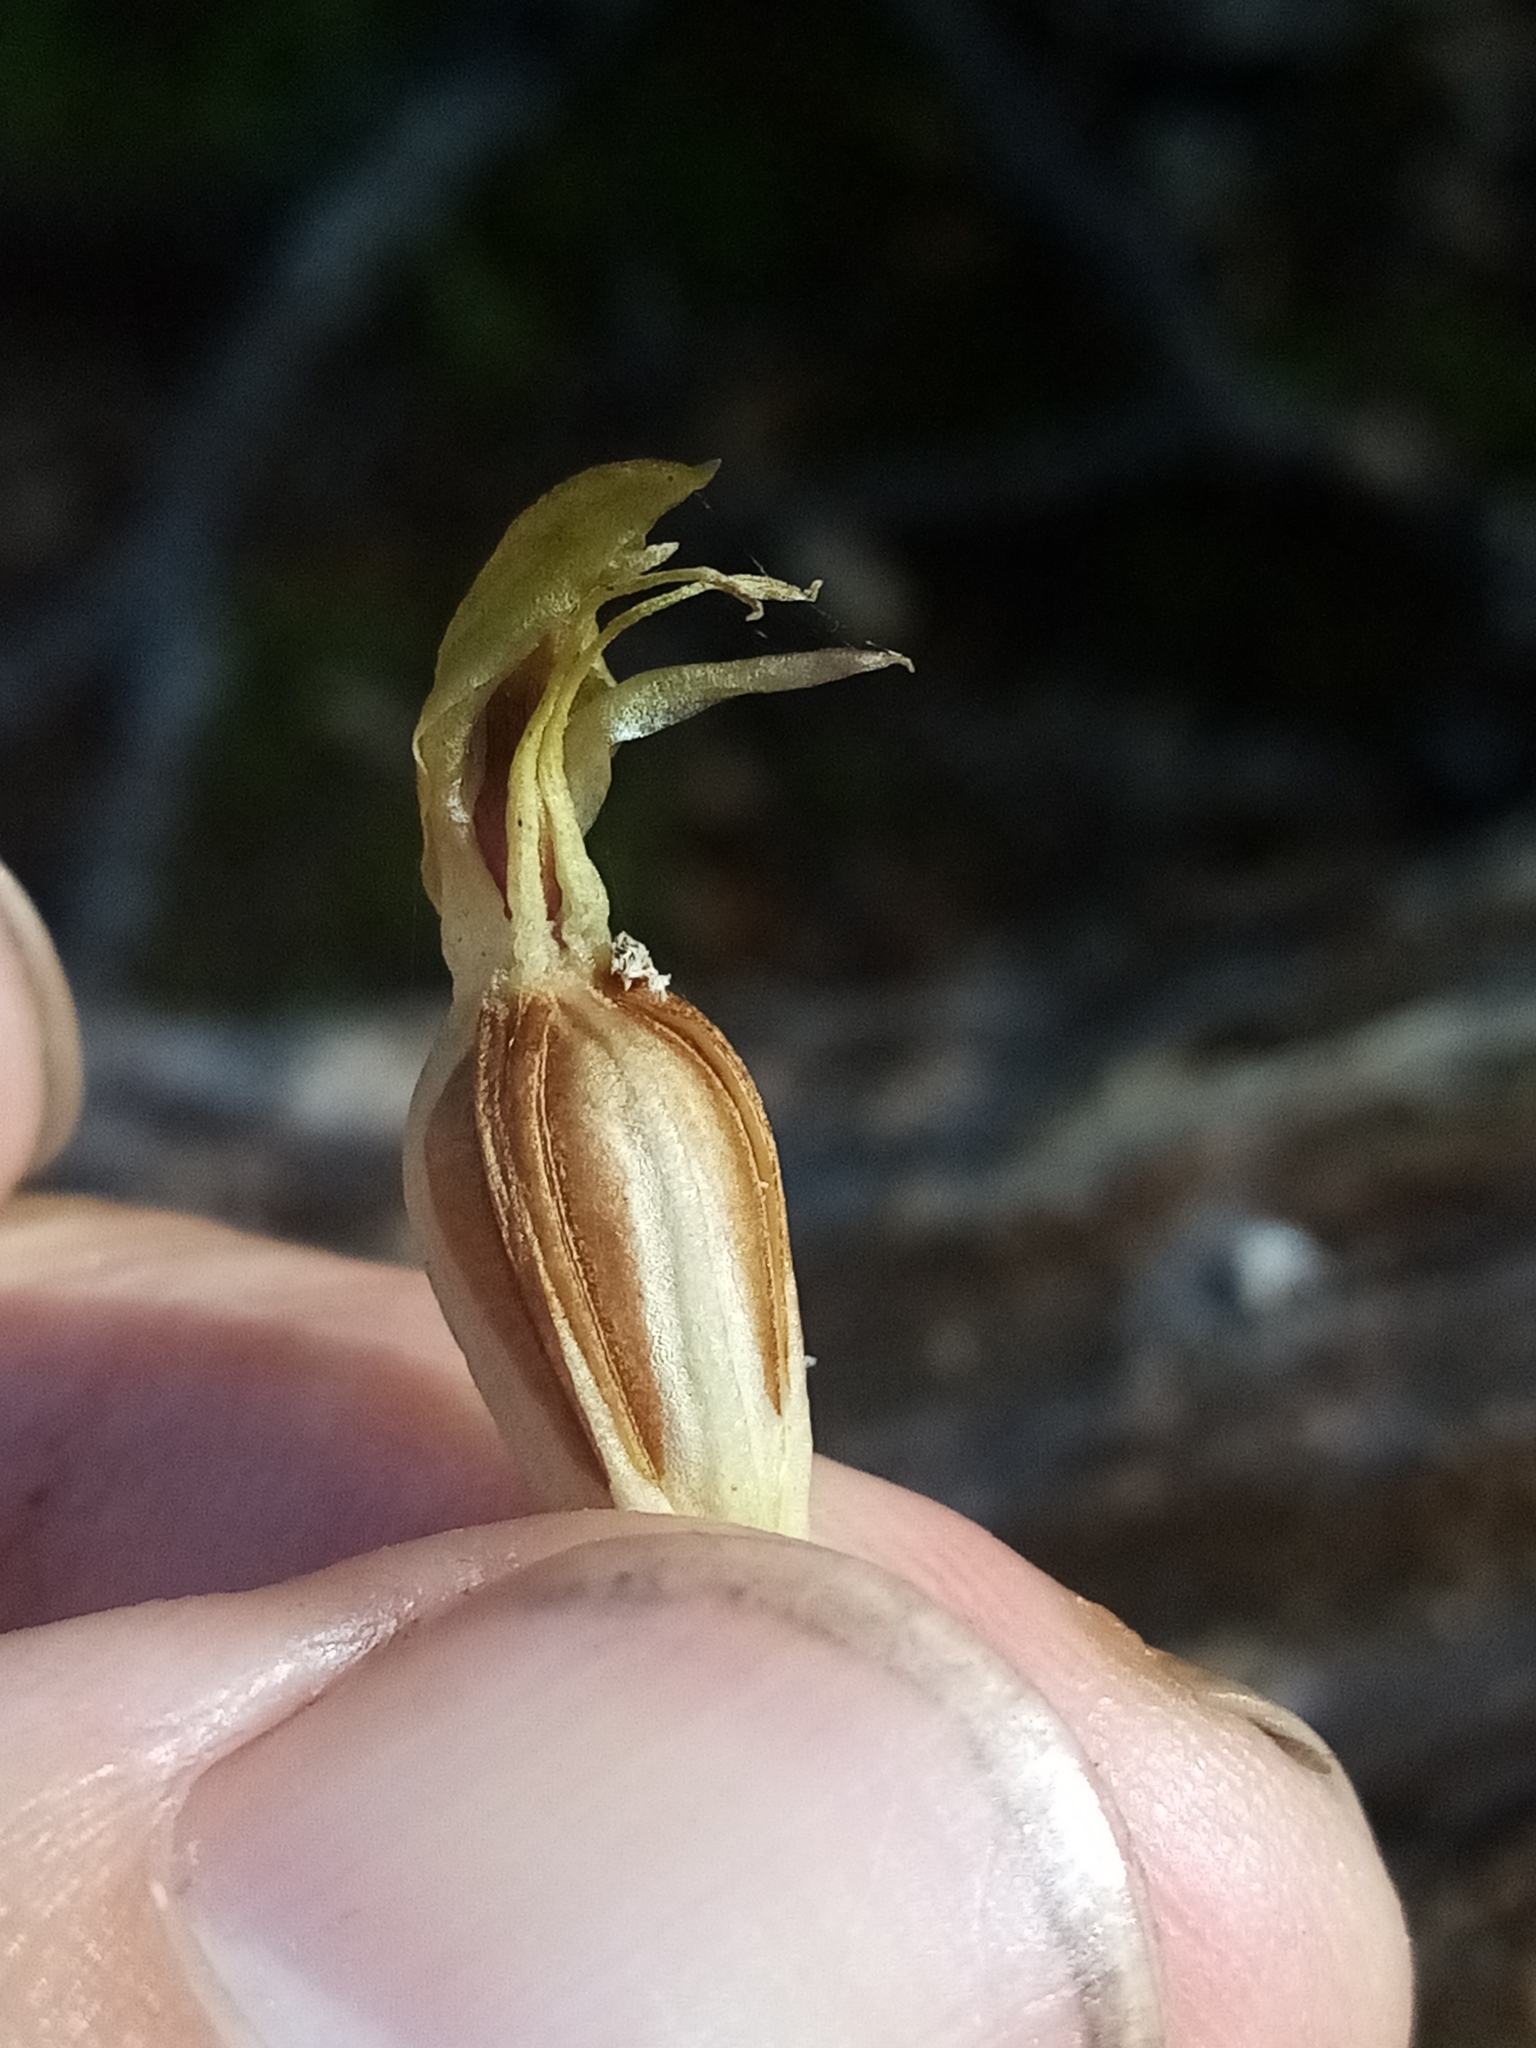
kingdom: Plantae
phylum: Tracheophyta
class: Liliopsida
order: Asparagales
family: Orchidaceae
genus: Chiloglottis
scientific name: Chiloglottis cornuta
